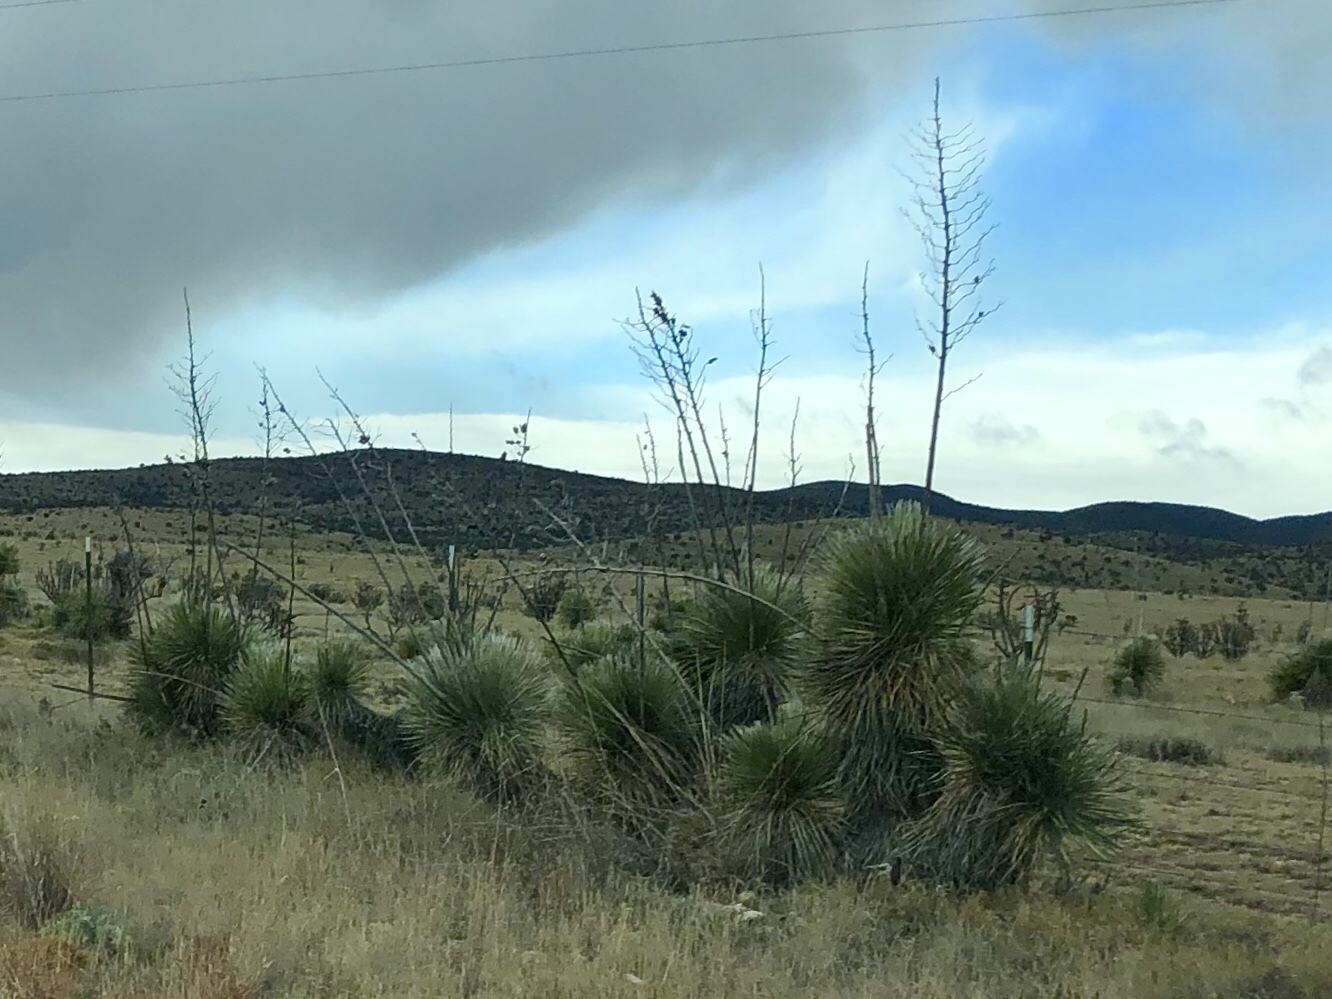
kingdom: Plantae
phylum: Tracheophyta
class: Liliopsida
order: Asparagales
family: Asparagaceae
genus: Yucca
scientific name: Yucca elata
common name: Palmella
